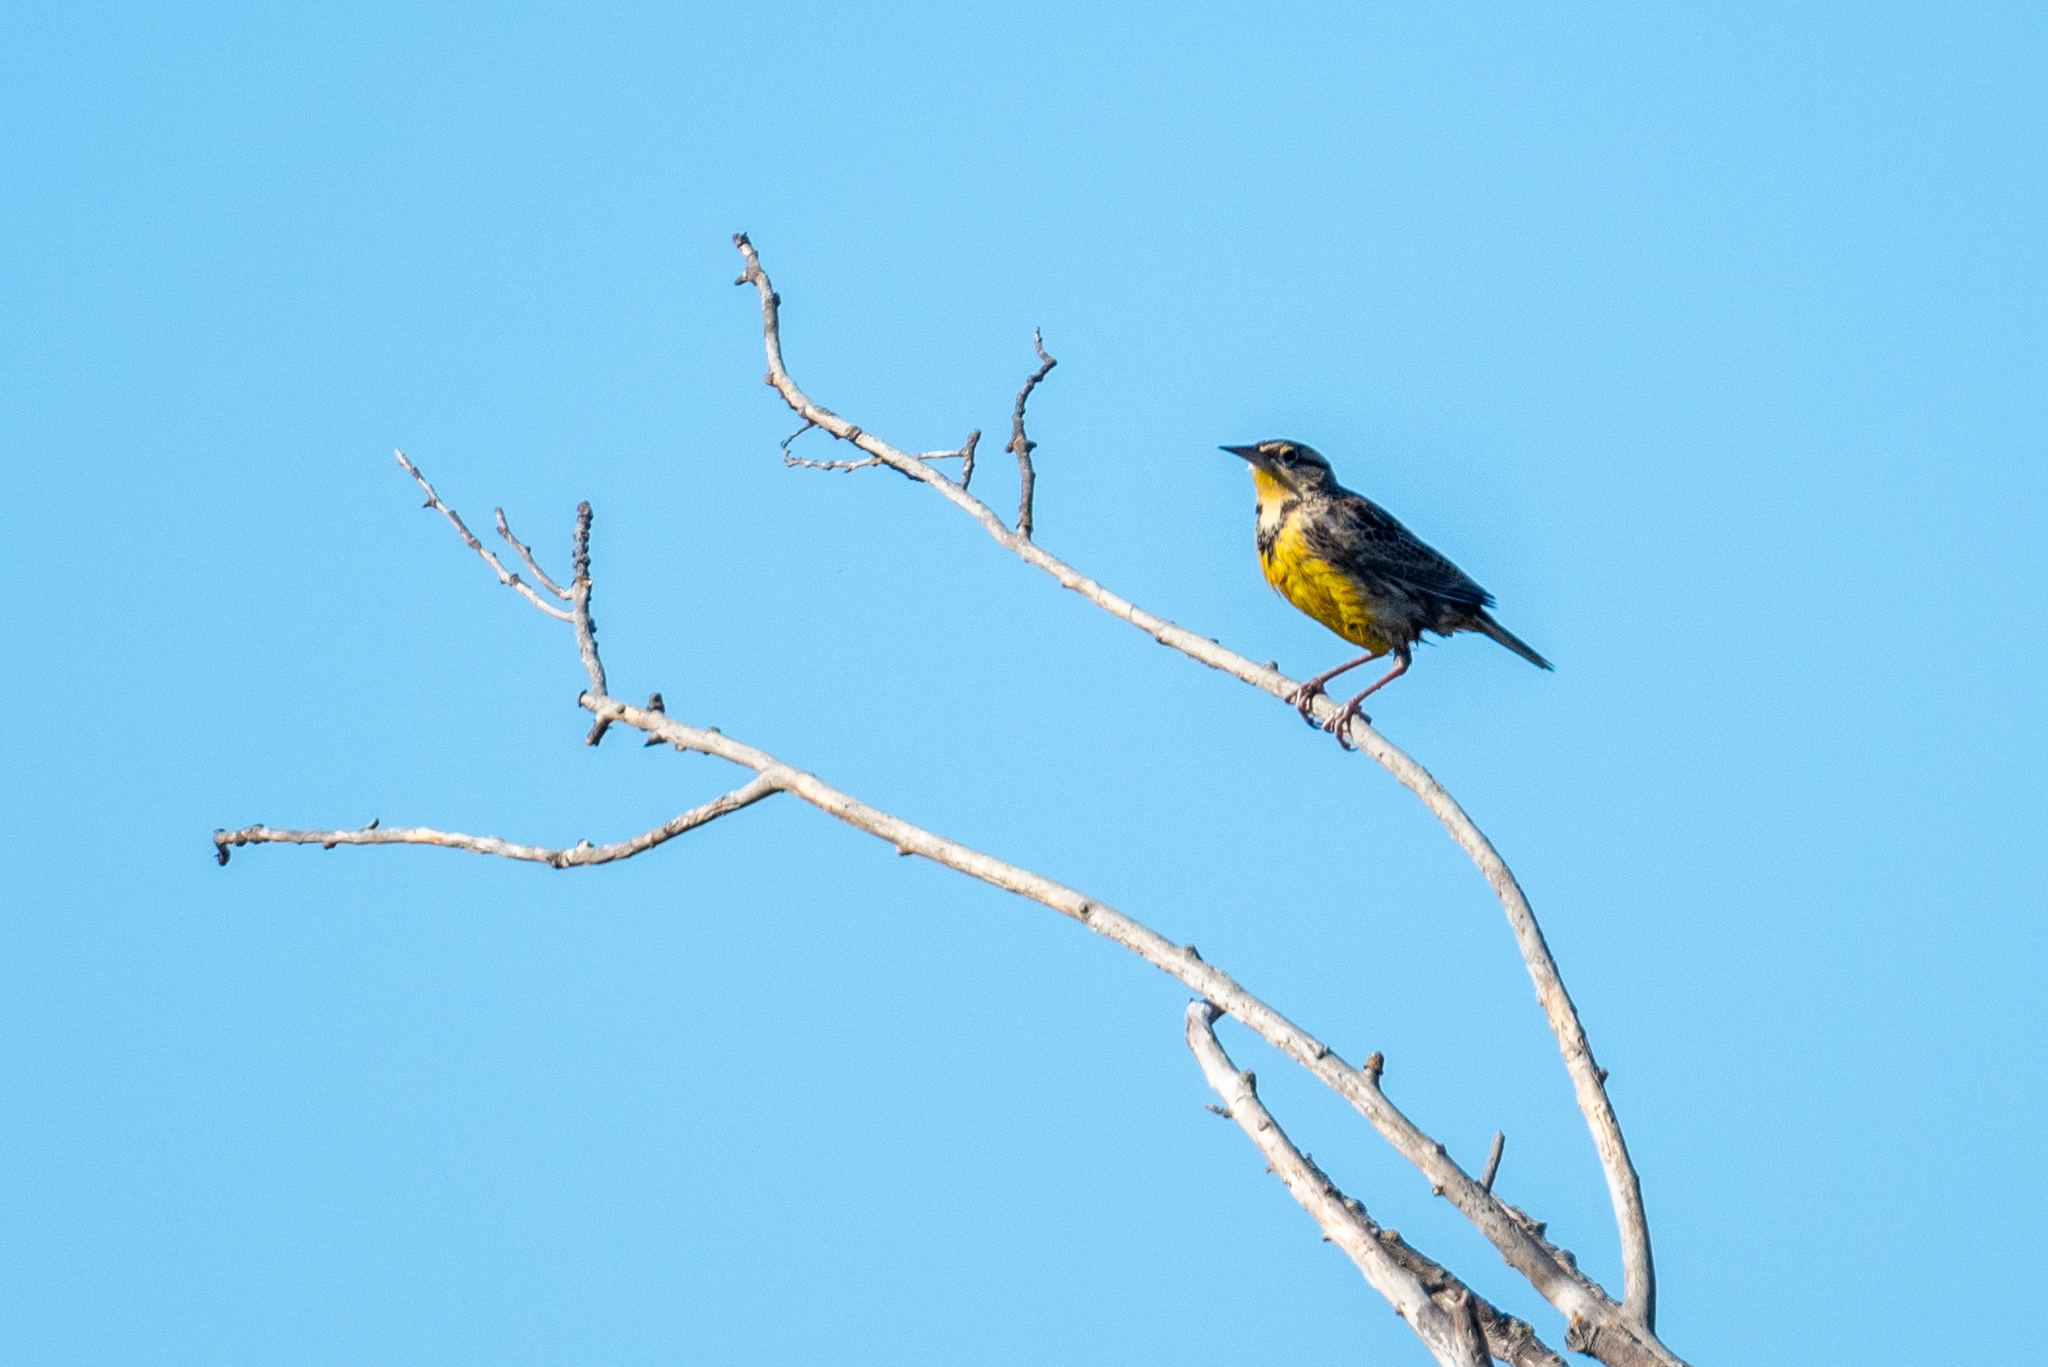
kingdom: Animalia
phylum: Chordata
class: Aves
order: Passeriformes
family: Icteridae
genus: Sturnella
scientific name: Sturnella neglecta
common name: Western meadowlark
